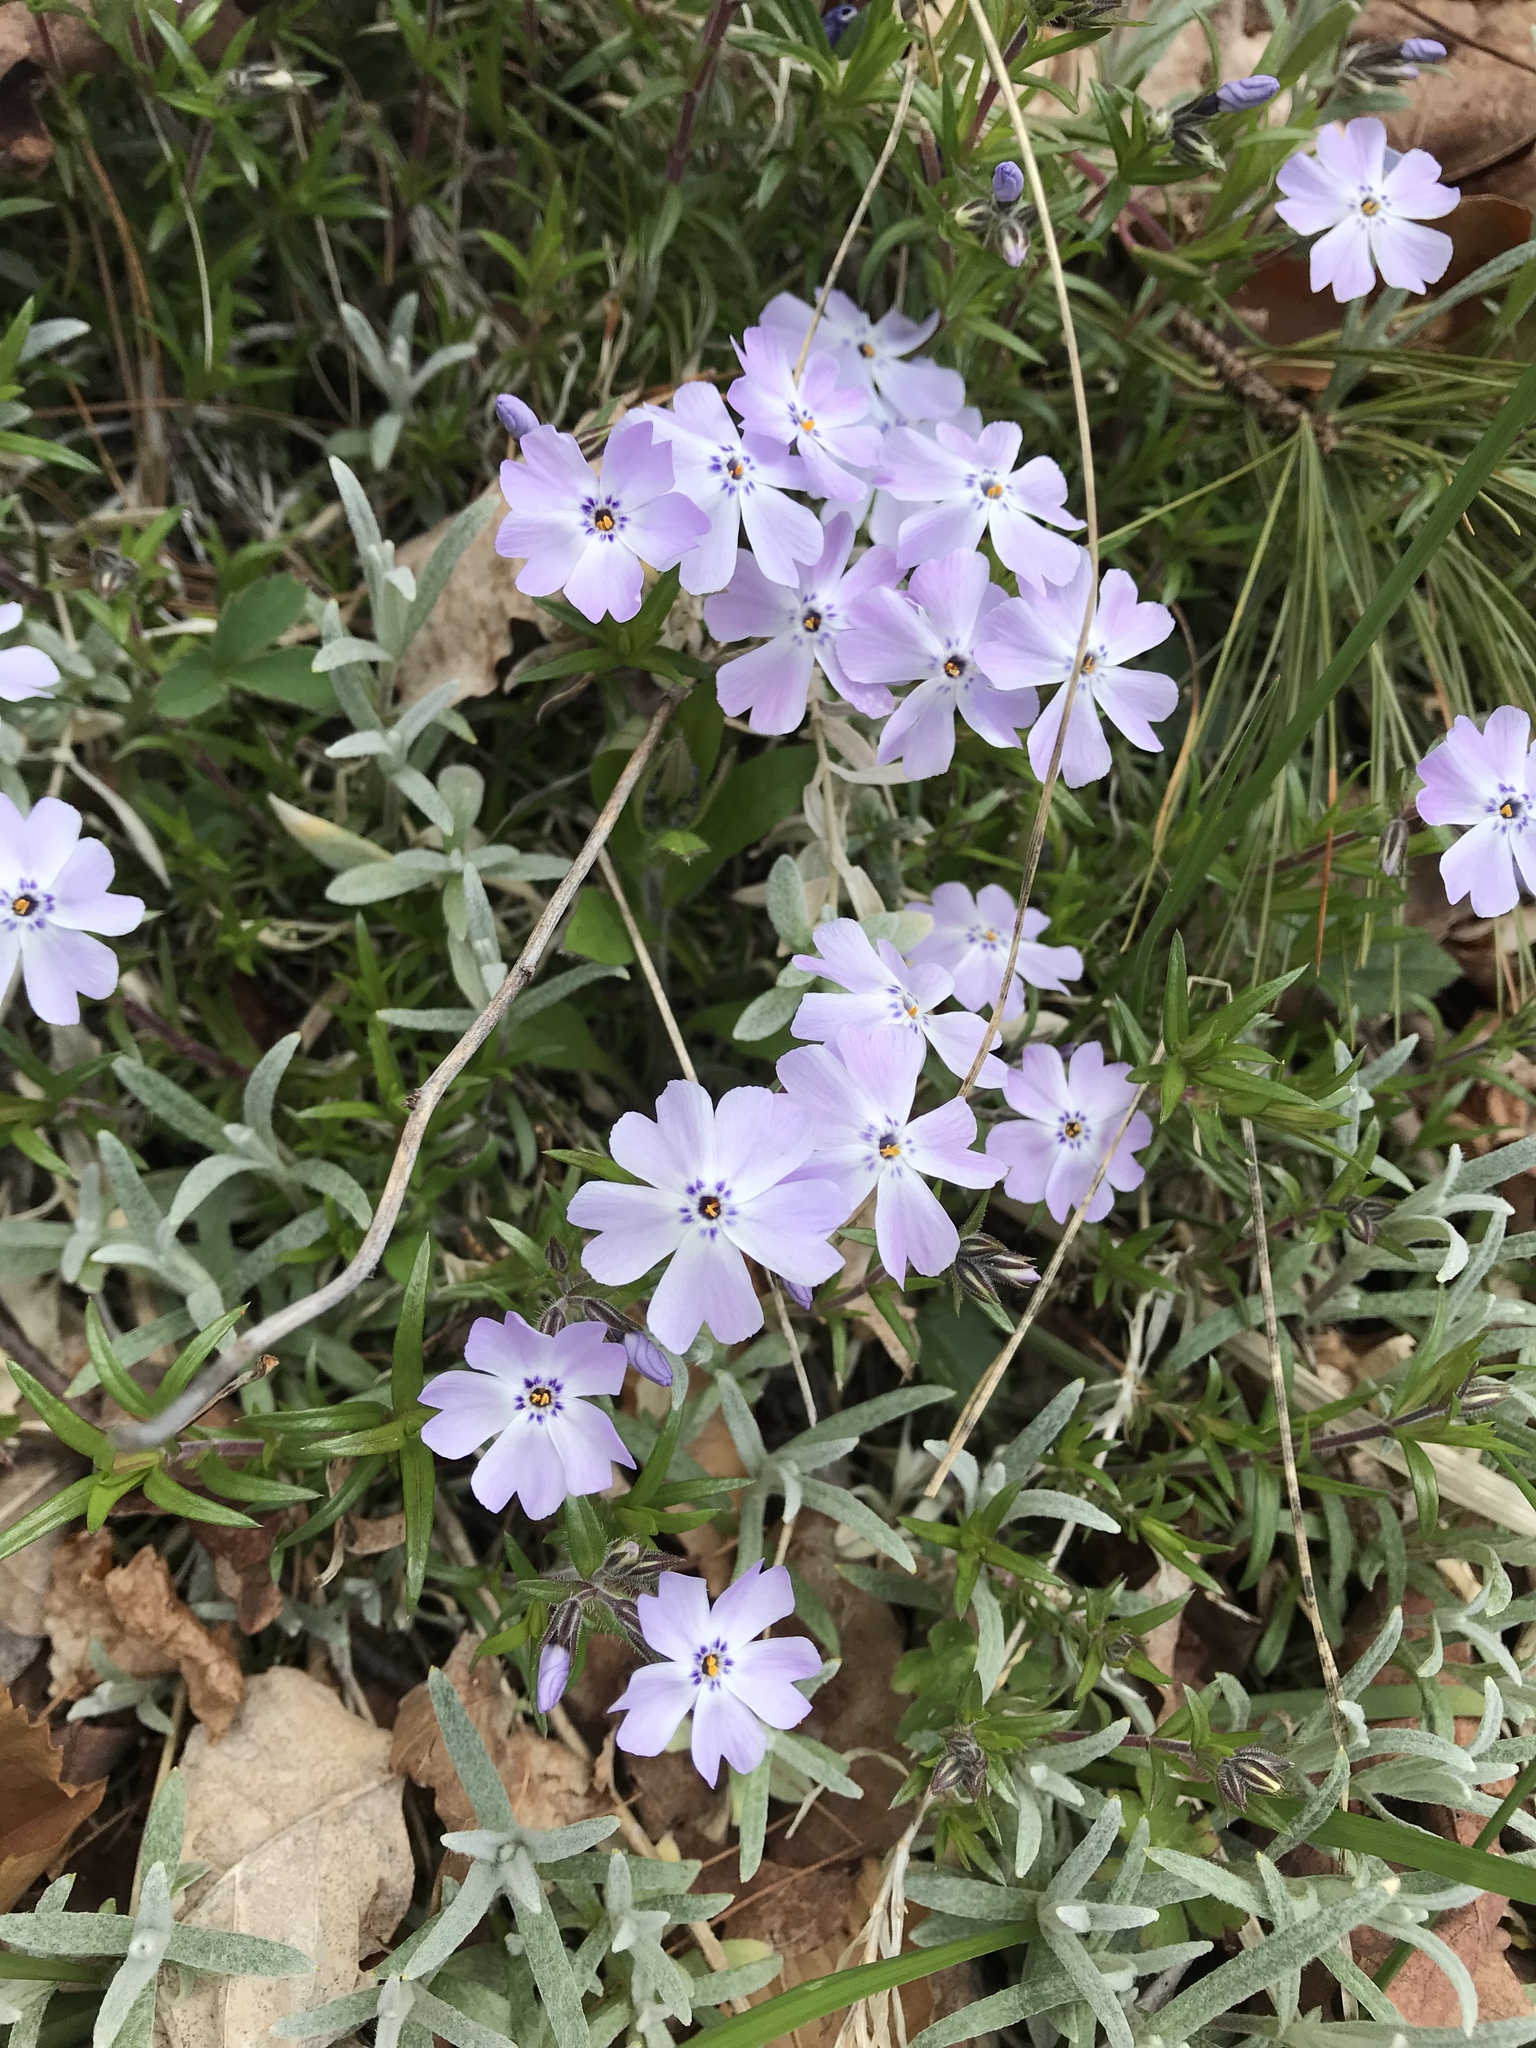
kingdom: Plantae
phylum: Tracheophyta
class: Magnoliopsida
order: Ericales
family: Polemoniaceae
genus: Phlox
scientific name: Phlox subulata
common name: Moss phlox
